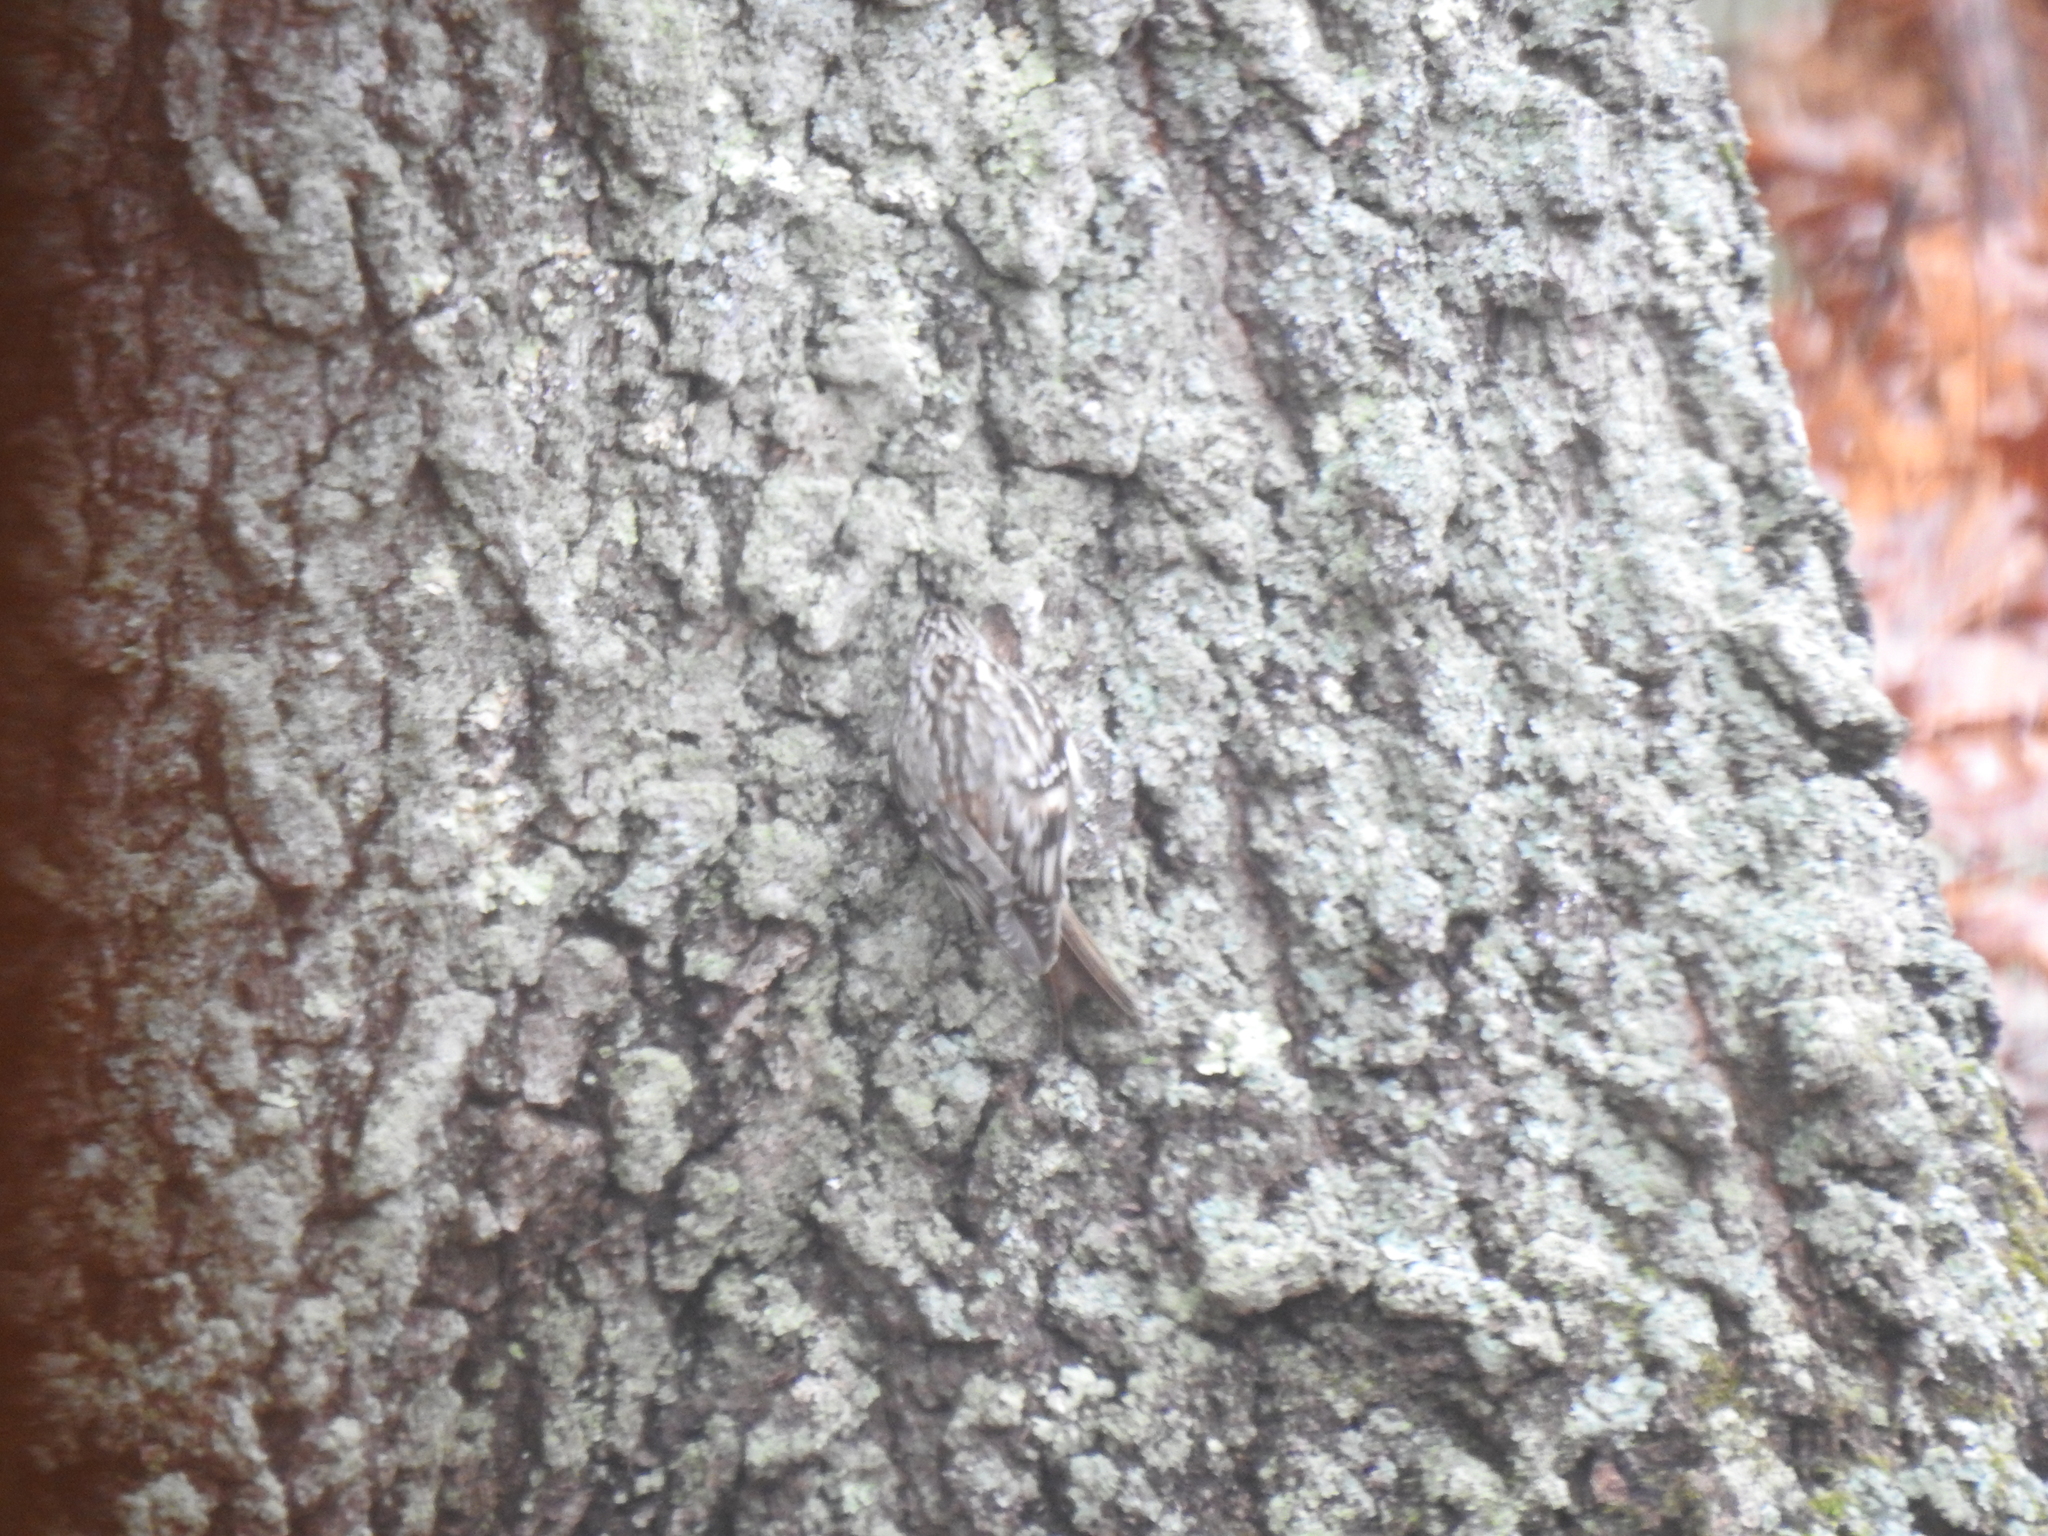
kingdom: Animalia
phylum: Chordata
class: Aves
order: Passeriformes
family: Certhiidae
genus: Certhia
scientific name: Certhia americana
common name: Brown creeper
